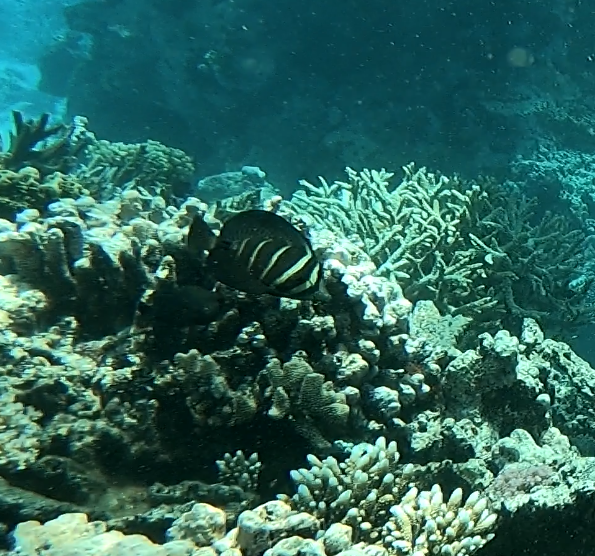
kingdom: Animalia
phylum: Chordata
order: Perciformes
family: Acanthuridae
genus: Zebrasoma
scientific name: Zebrasoma veliferum
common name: Sailfin surgeonfish
